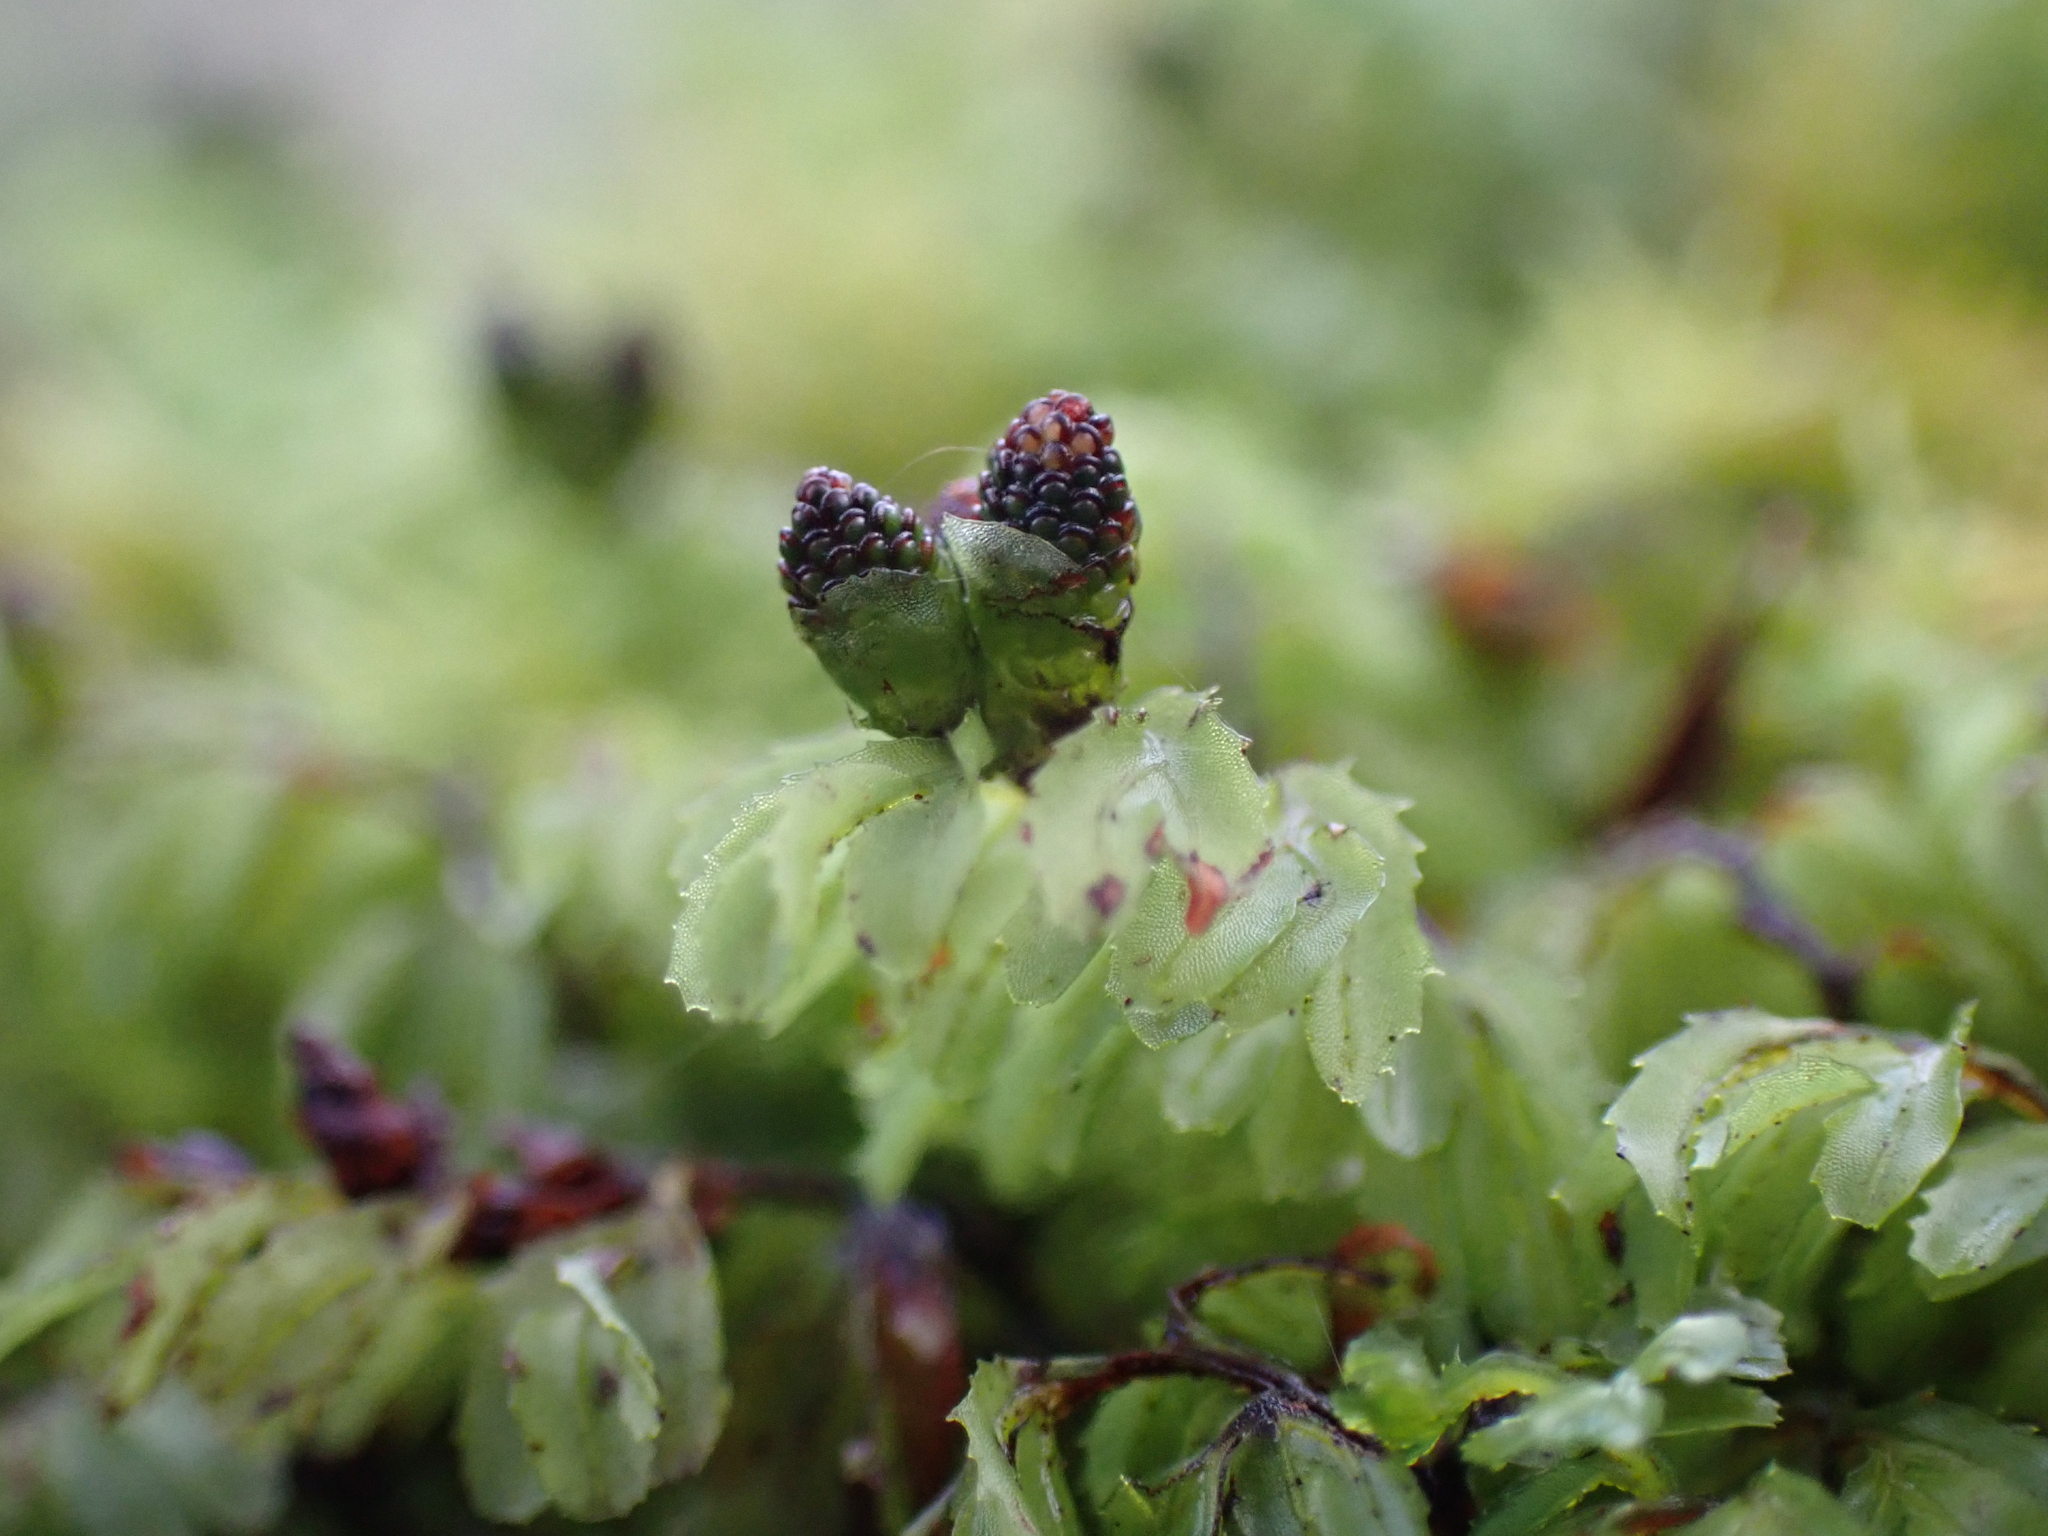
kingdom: Plantae
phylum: Tracheophyta
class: Polypodiopsida
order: Hymenophyllales
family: Hymenophyllaceae
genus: Hymenophyllum
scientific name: Hymenophyllum cupressiforme
